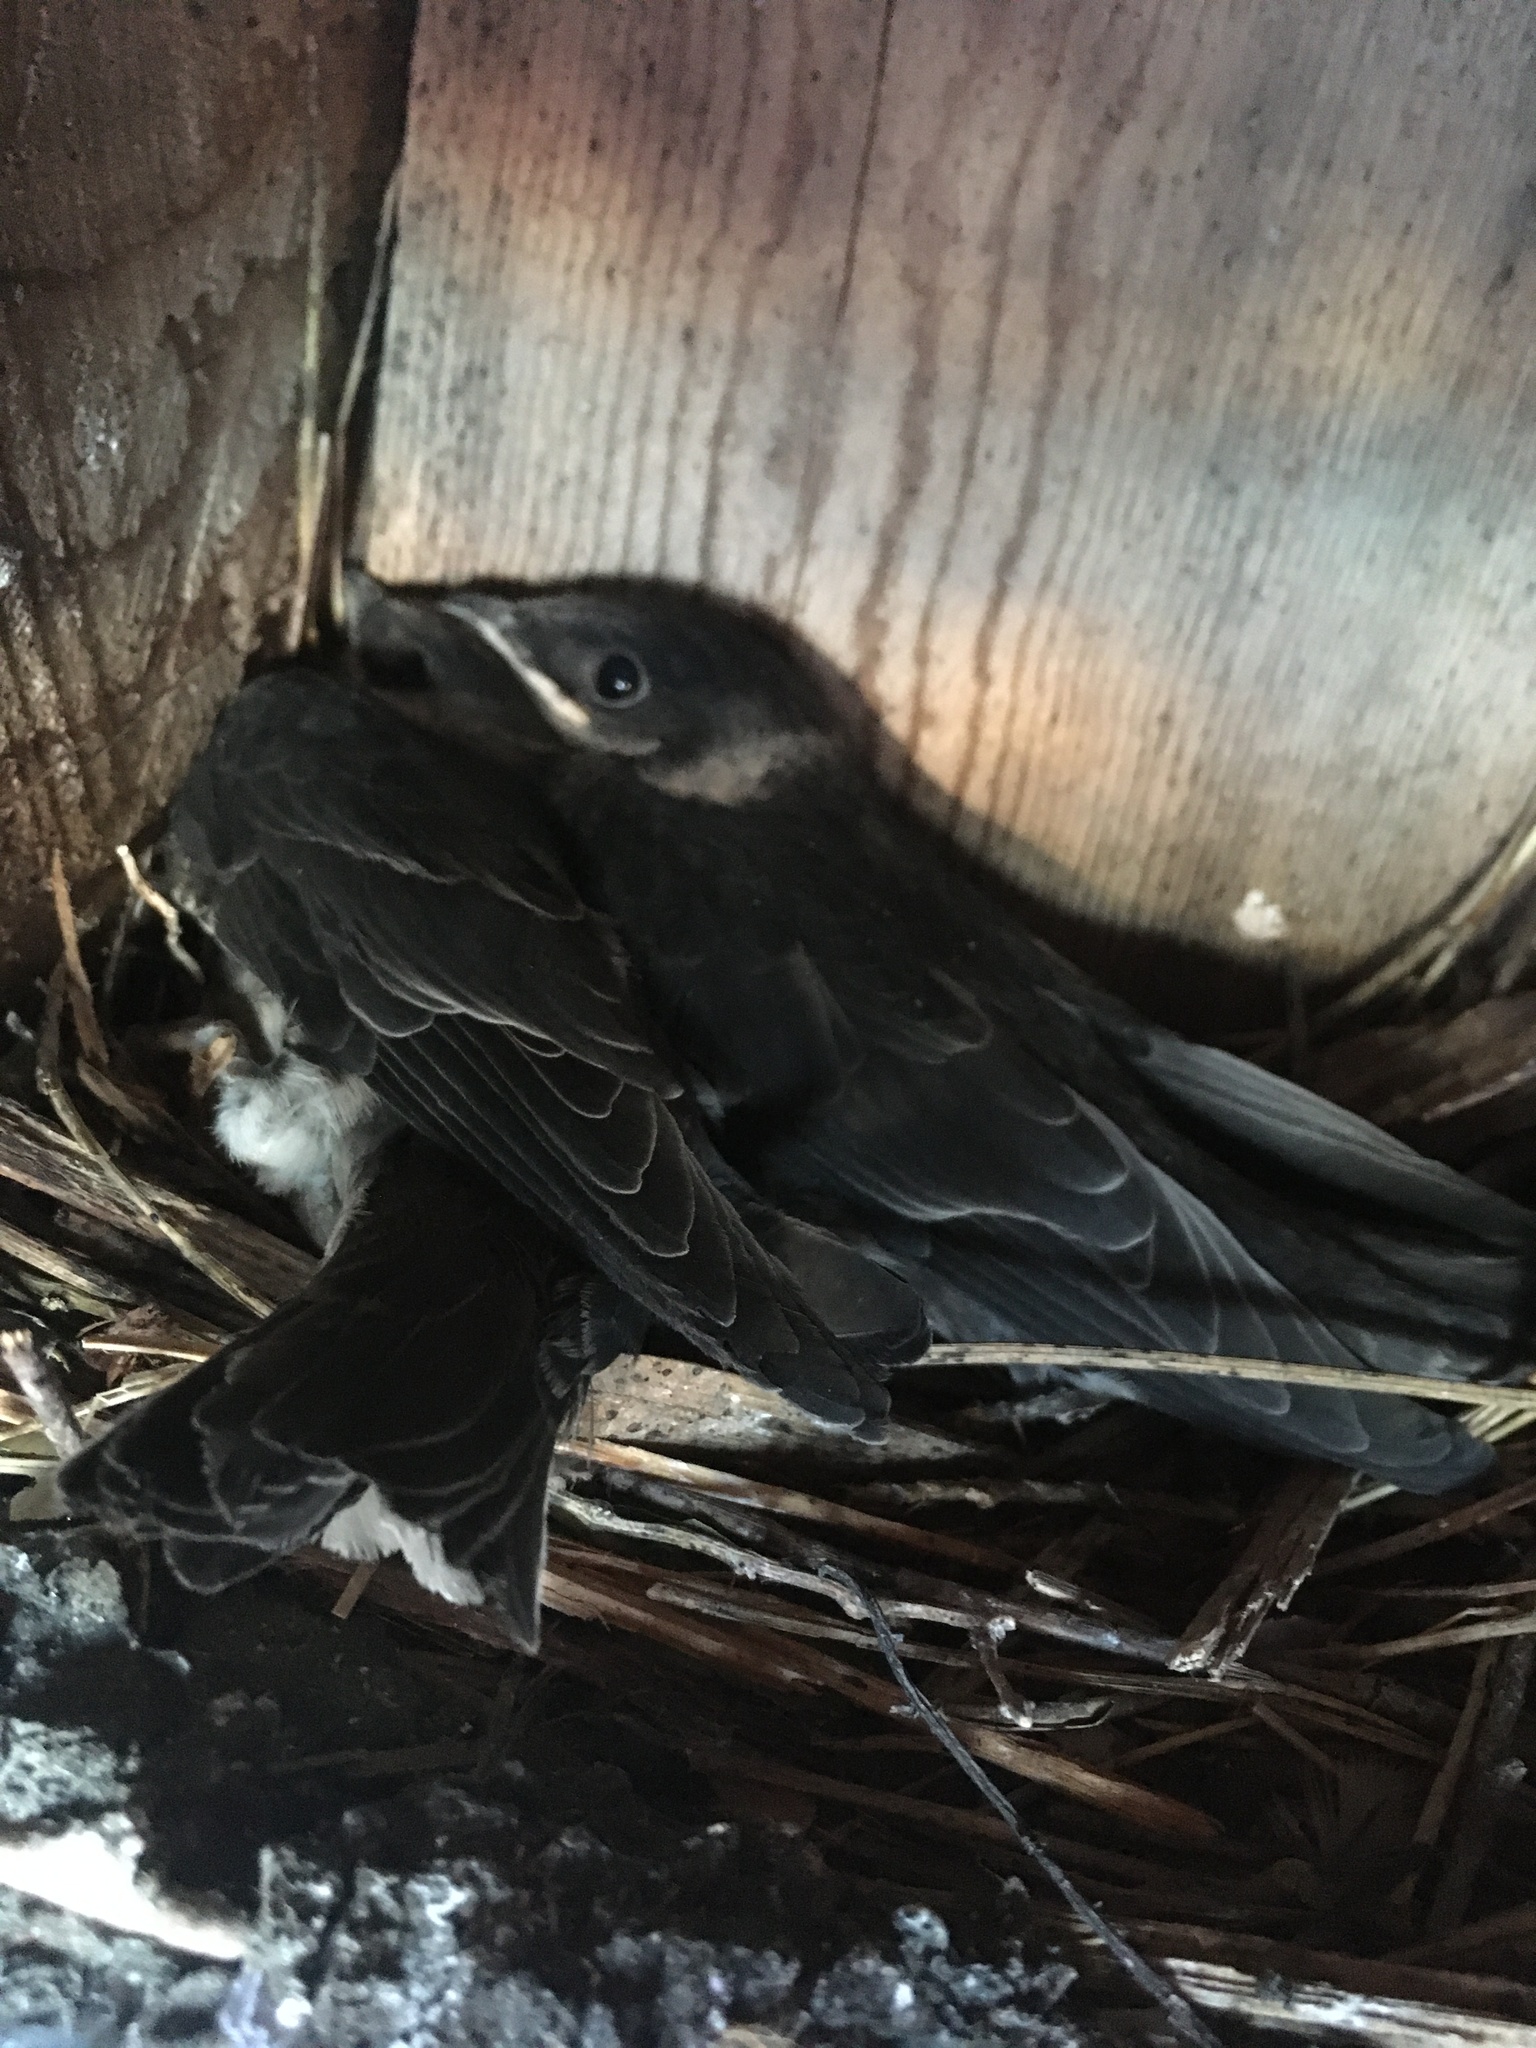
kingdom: Animalia
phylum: Chordata
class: Aves
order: Passeriformes
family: Hirundinidae
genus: Progne
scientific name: Progne subis
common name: Purple martin
